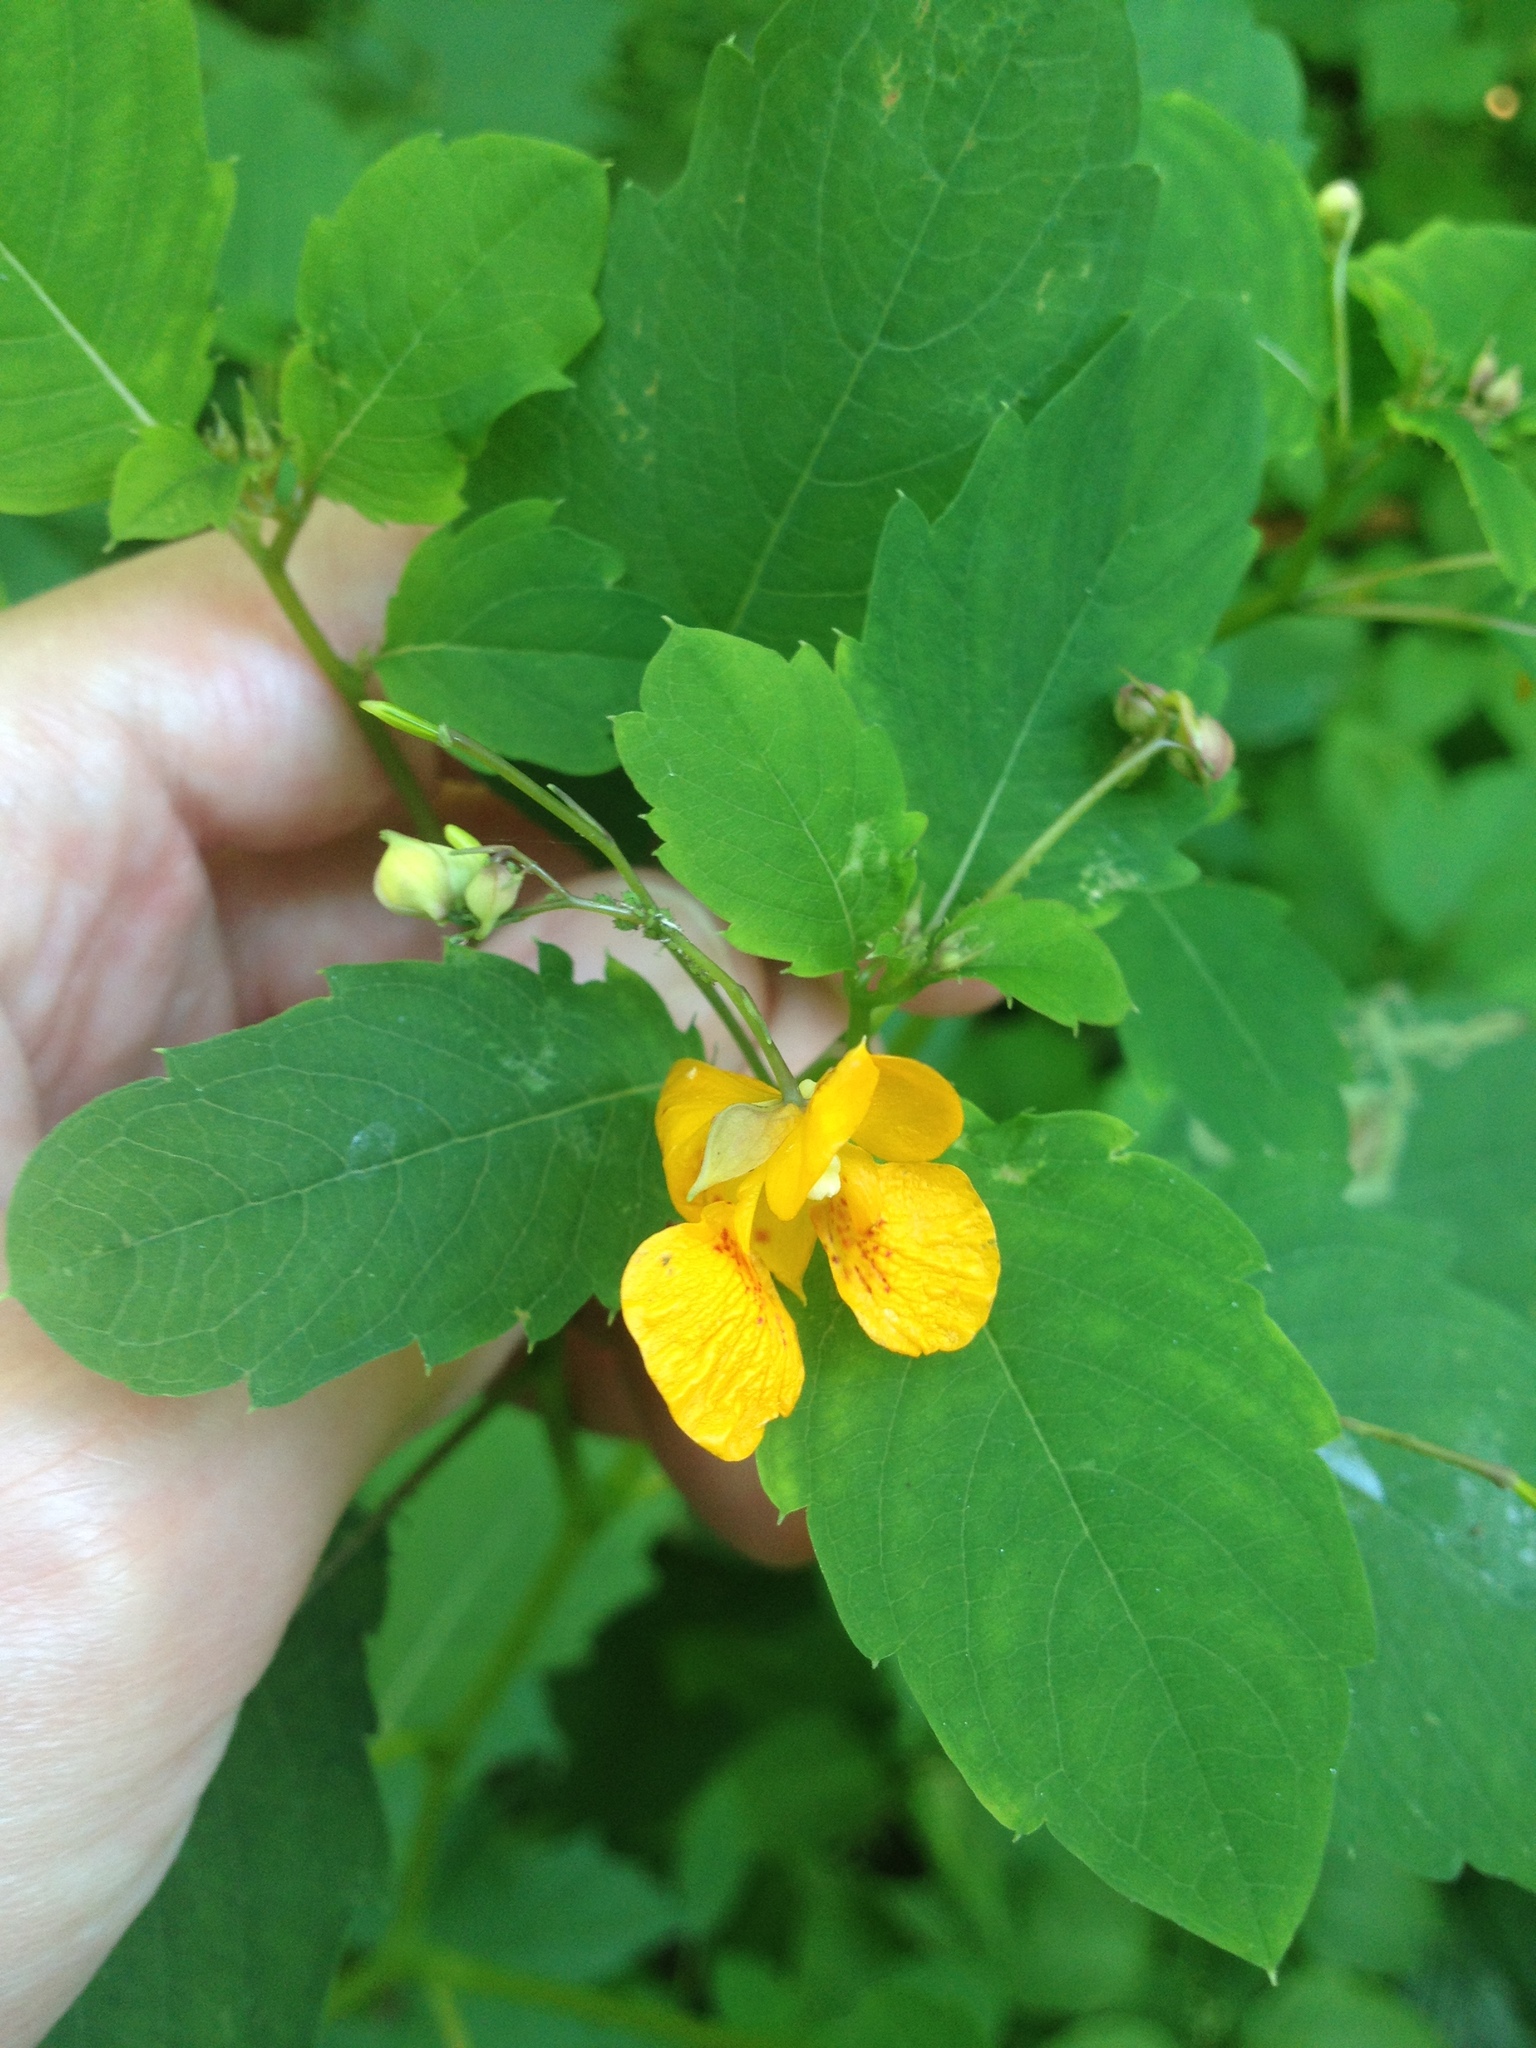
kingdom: Plantae
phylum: Tracheophyta
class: Magnoliopsida
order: Ericales
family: Balsaminaceae
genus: Impatiens
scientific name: Impatiens capensis
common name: Orange balsam
